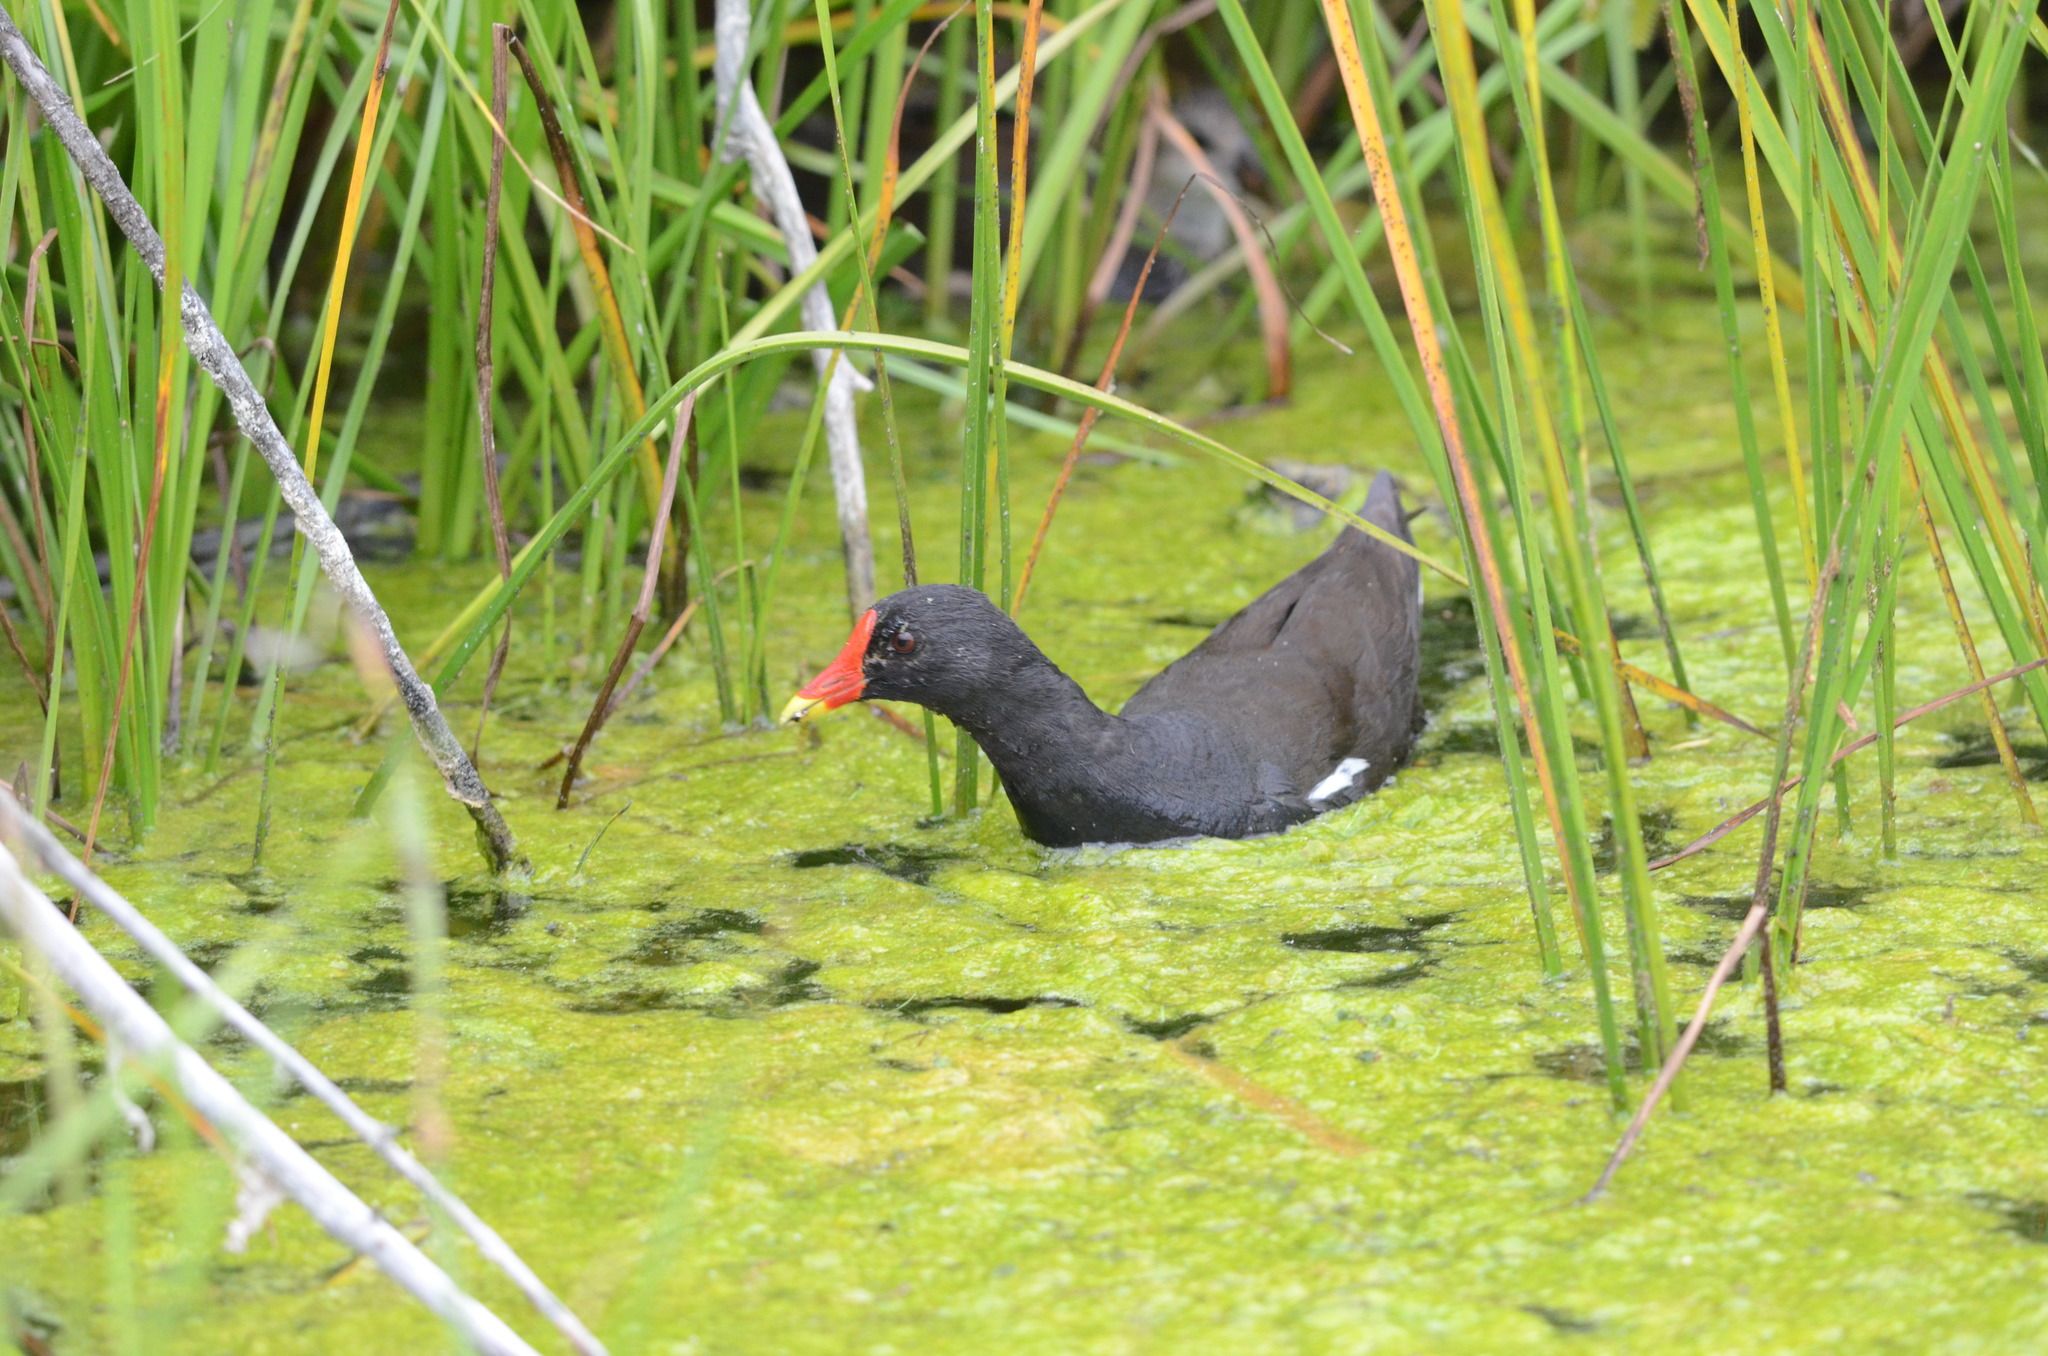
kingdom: Animalia
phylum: Chordata
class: Aves
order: Gruiformes
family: Rallidae
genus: Gallinula
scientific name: Gallinula chloropus
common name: Common moorhen
